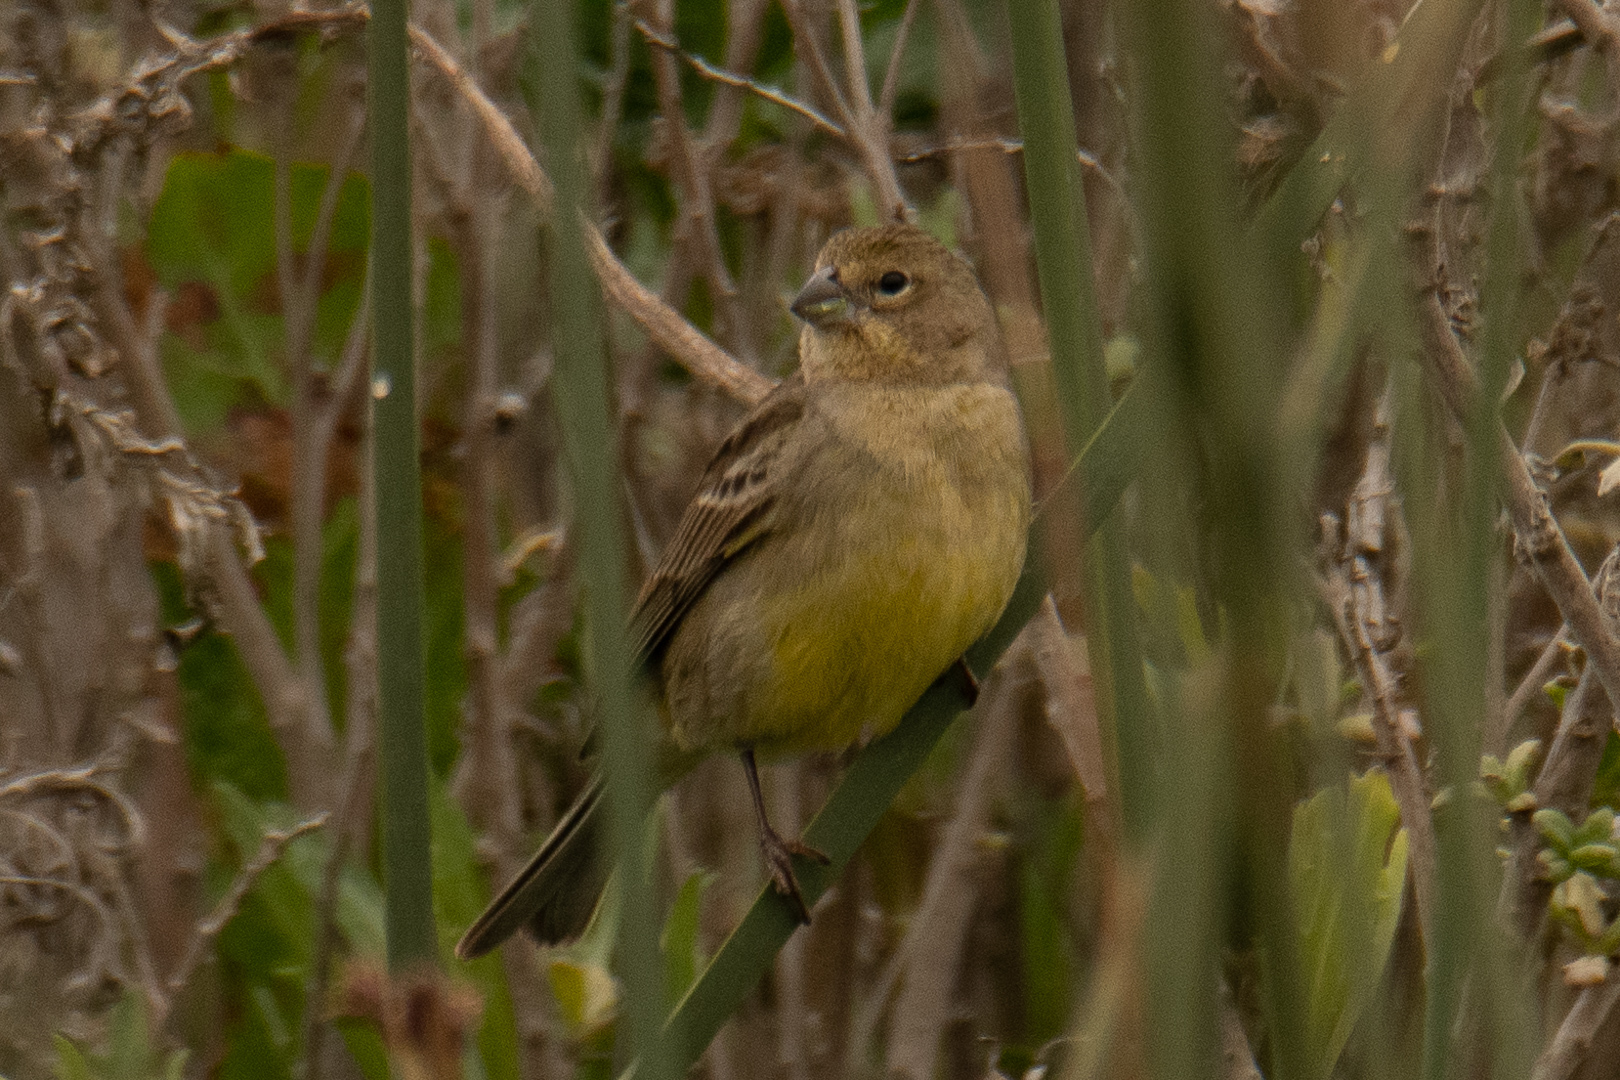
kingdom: Animalia
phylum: Chordata
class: Aves
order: Passeriformes
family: Thraupidae
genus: Sicalis
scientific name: Sicalis luteola
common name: Grassland yellow-finch
